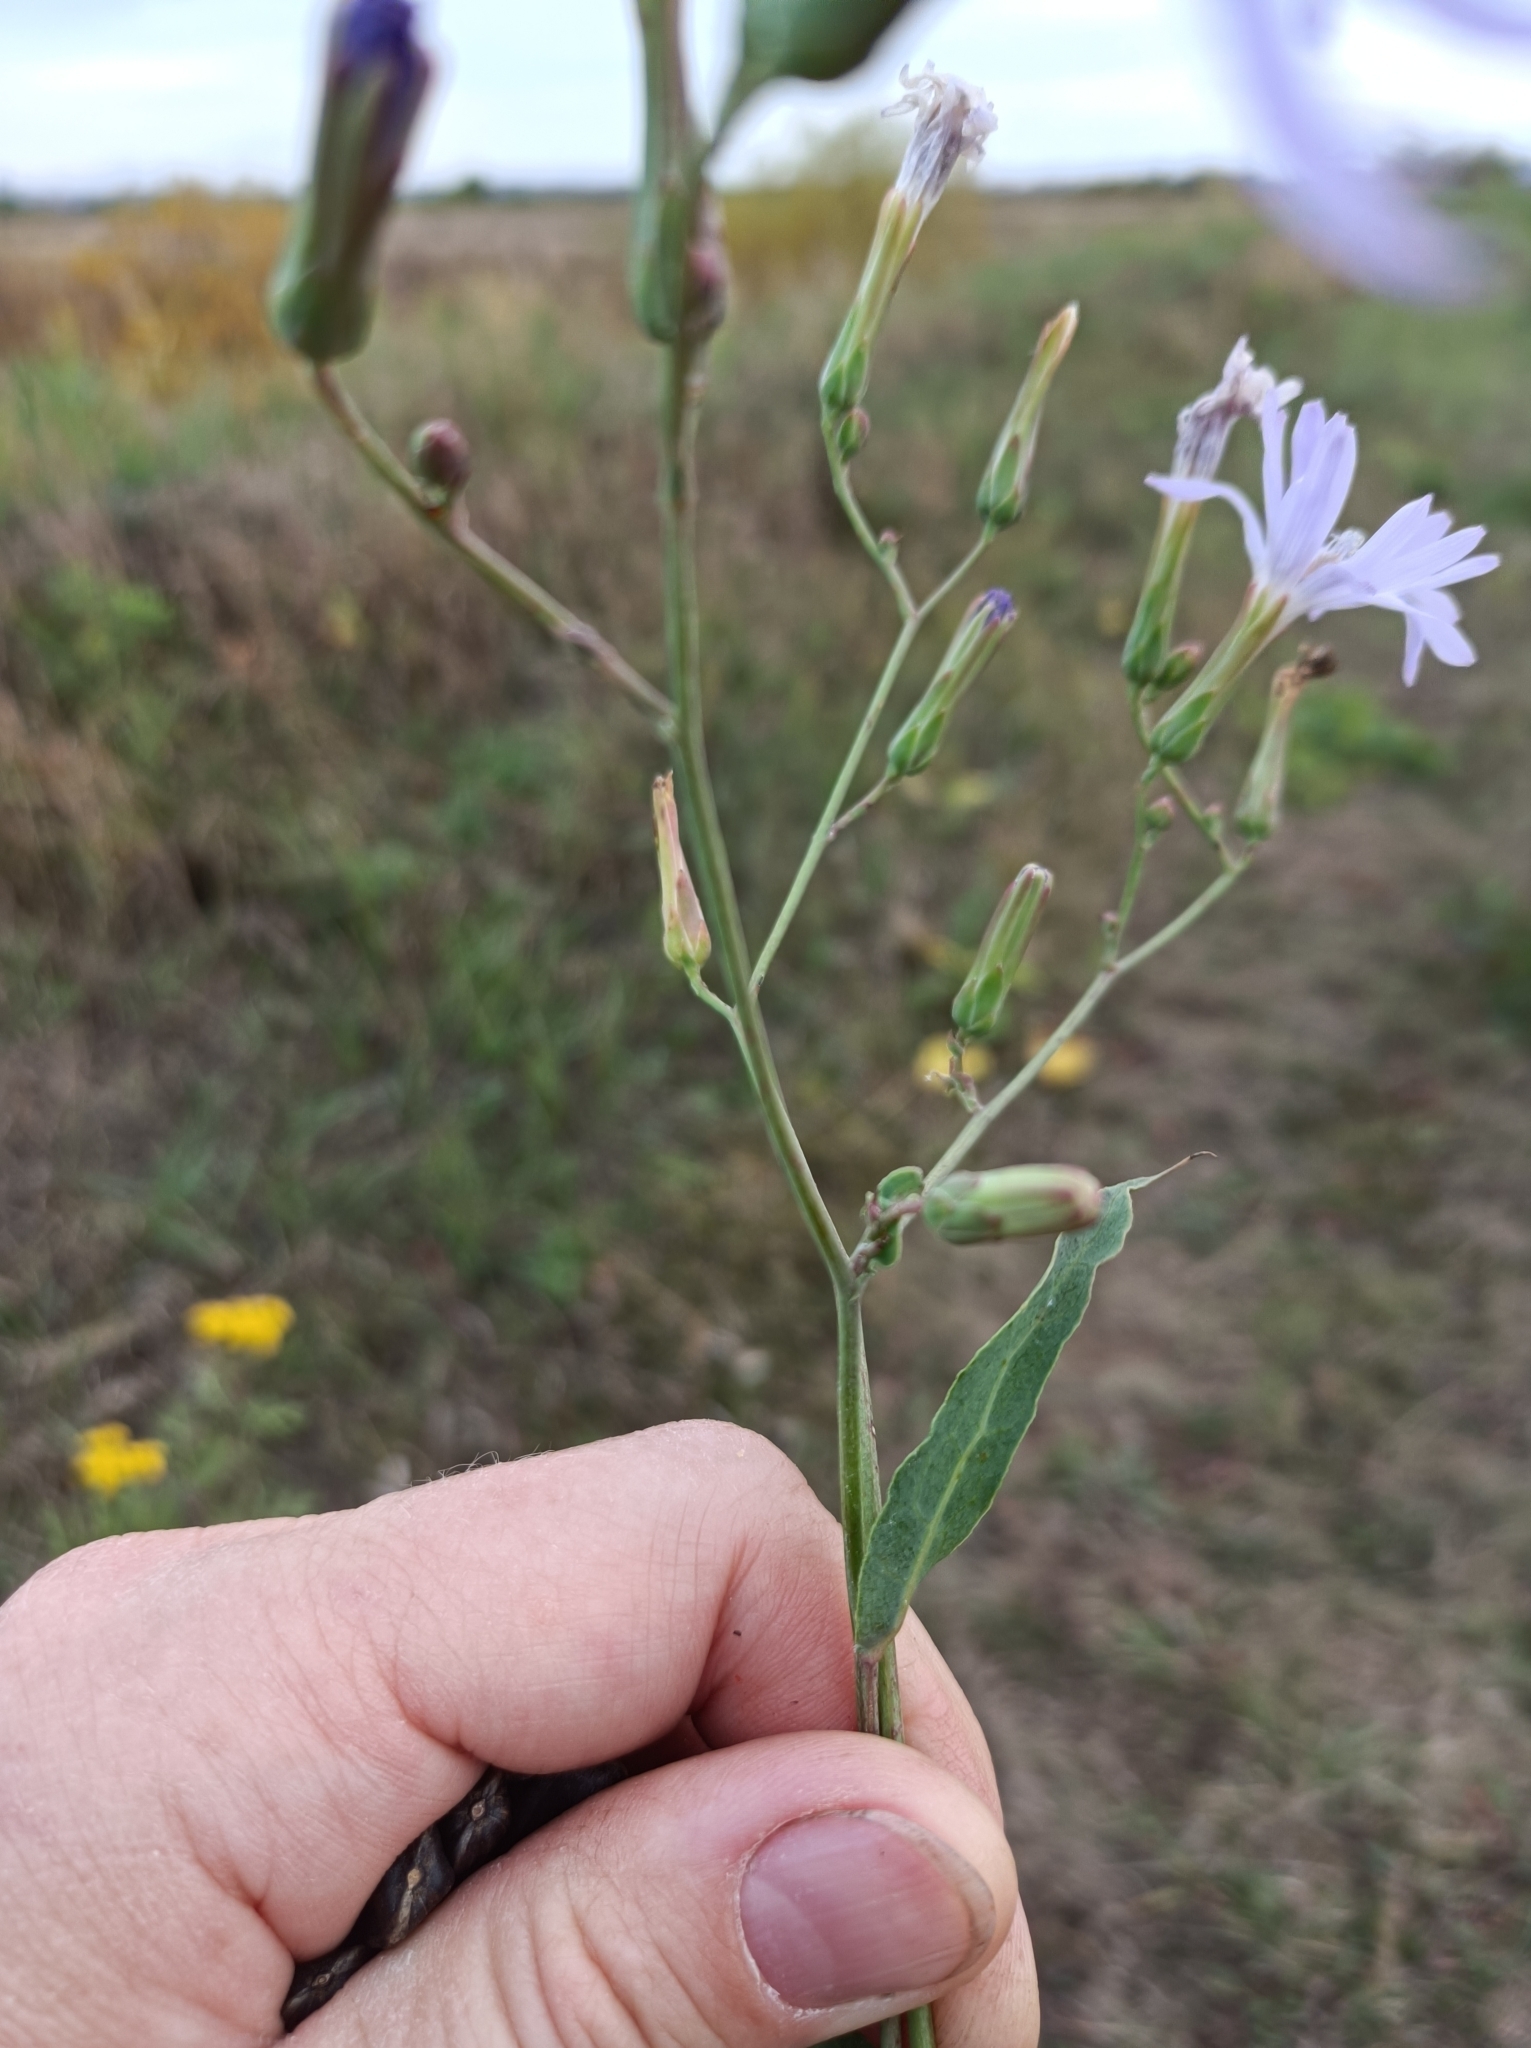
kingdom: Plantae
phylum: Tracheophyta
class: Magnoliopsida
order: Asterales
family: Asteraceae
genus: Lactuca
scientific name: Lactuca tatarica
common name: Blue lettuce
